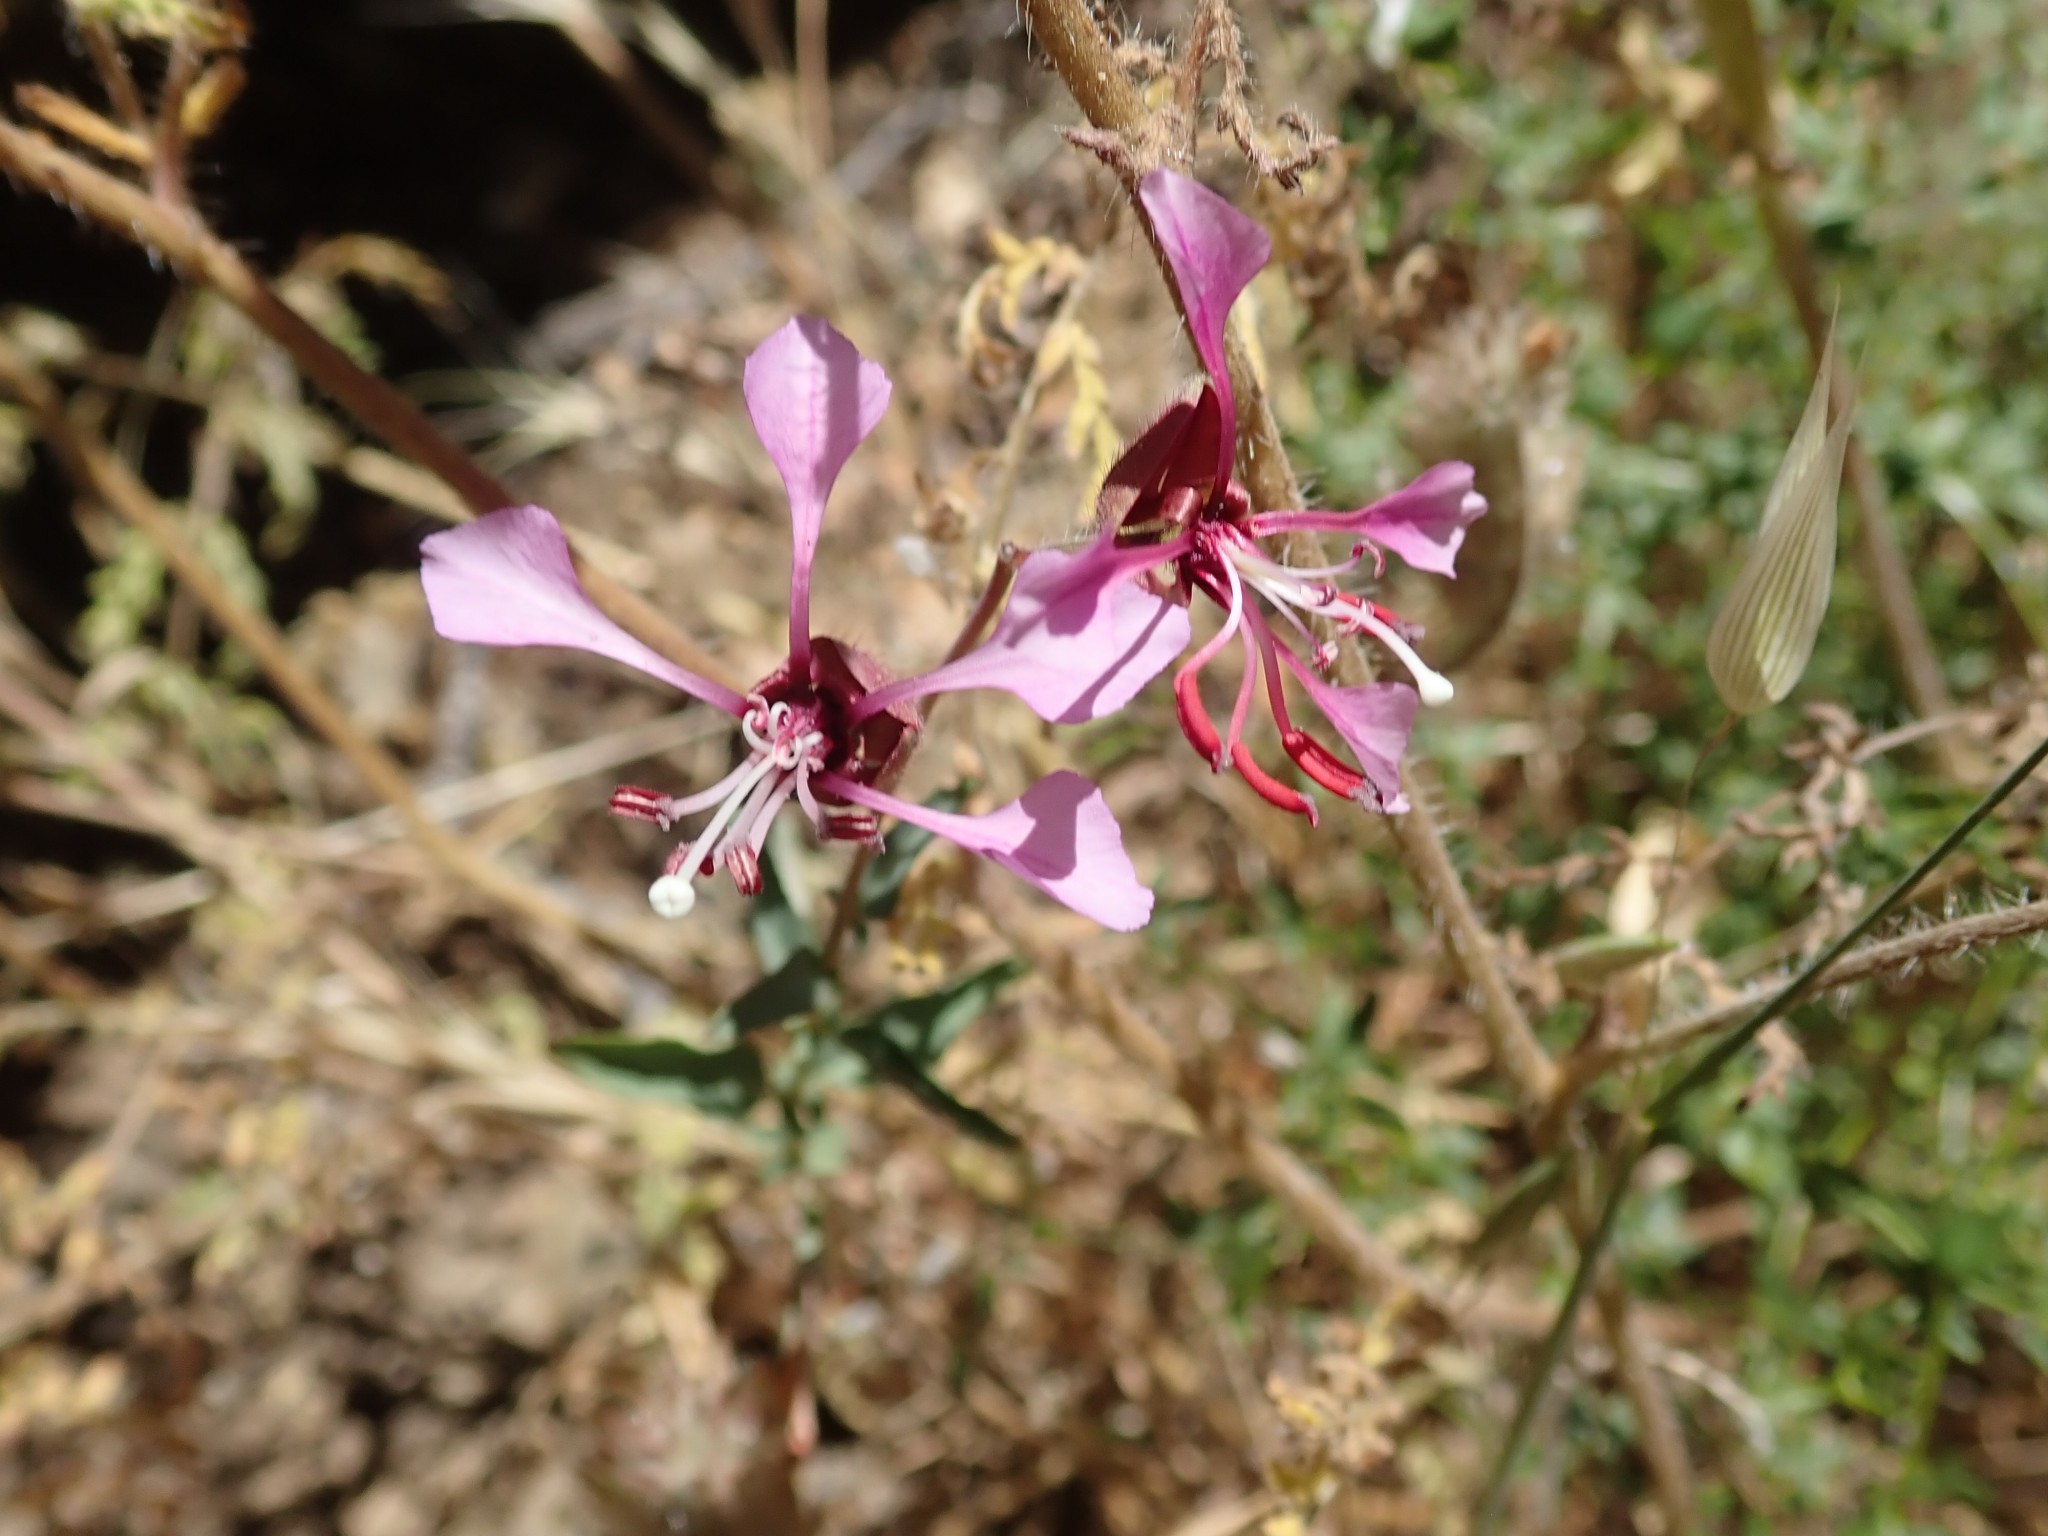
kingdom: Plantae
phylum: Tracheophyta
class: Magnoliopsida
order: Myrtales
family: Onagraceae
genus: Clarkia
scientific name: Clarkia unguiculata
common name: Clarkia
